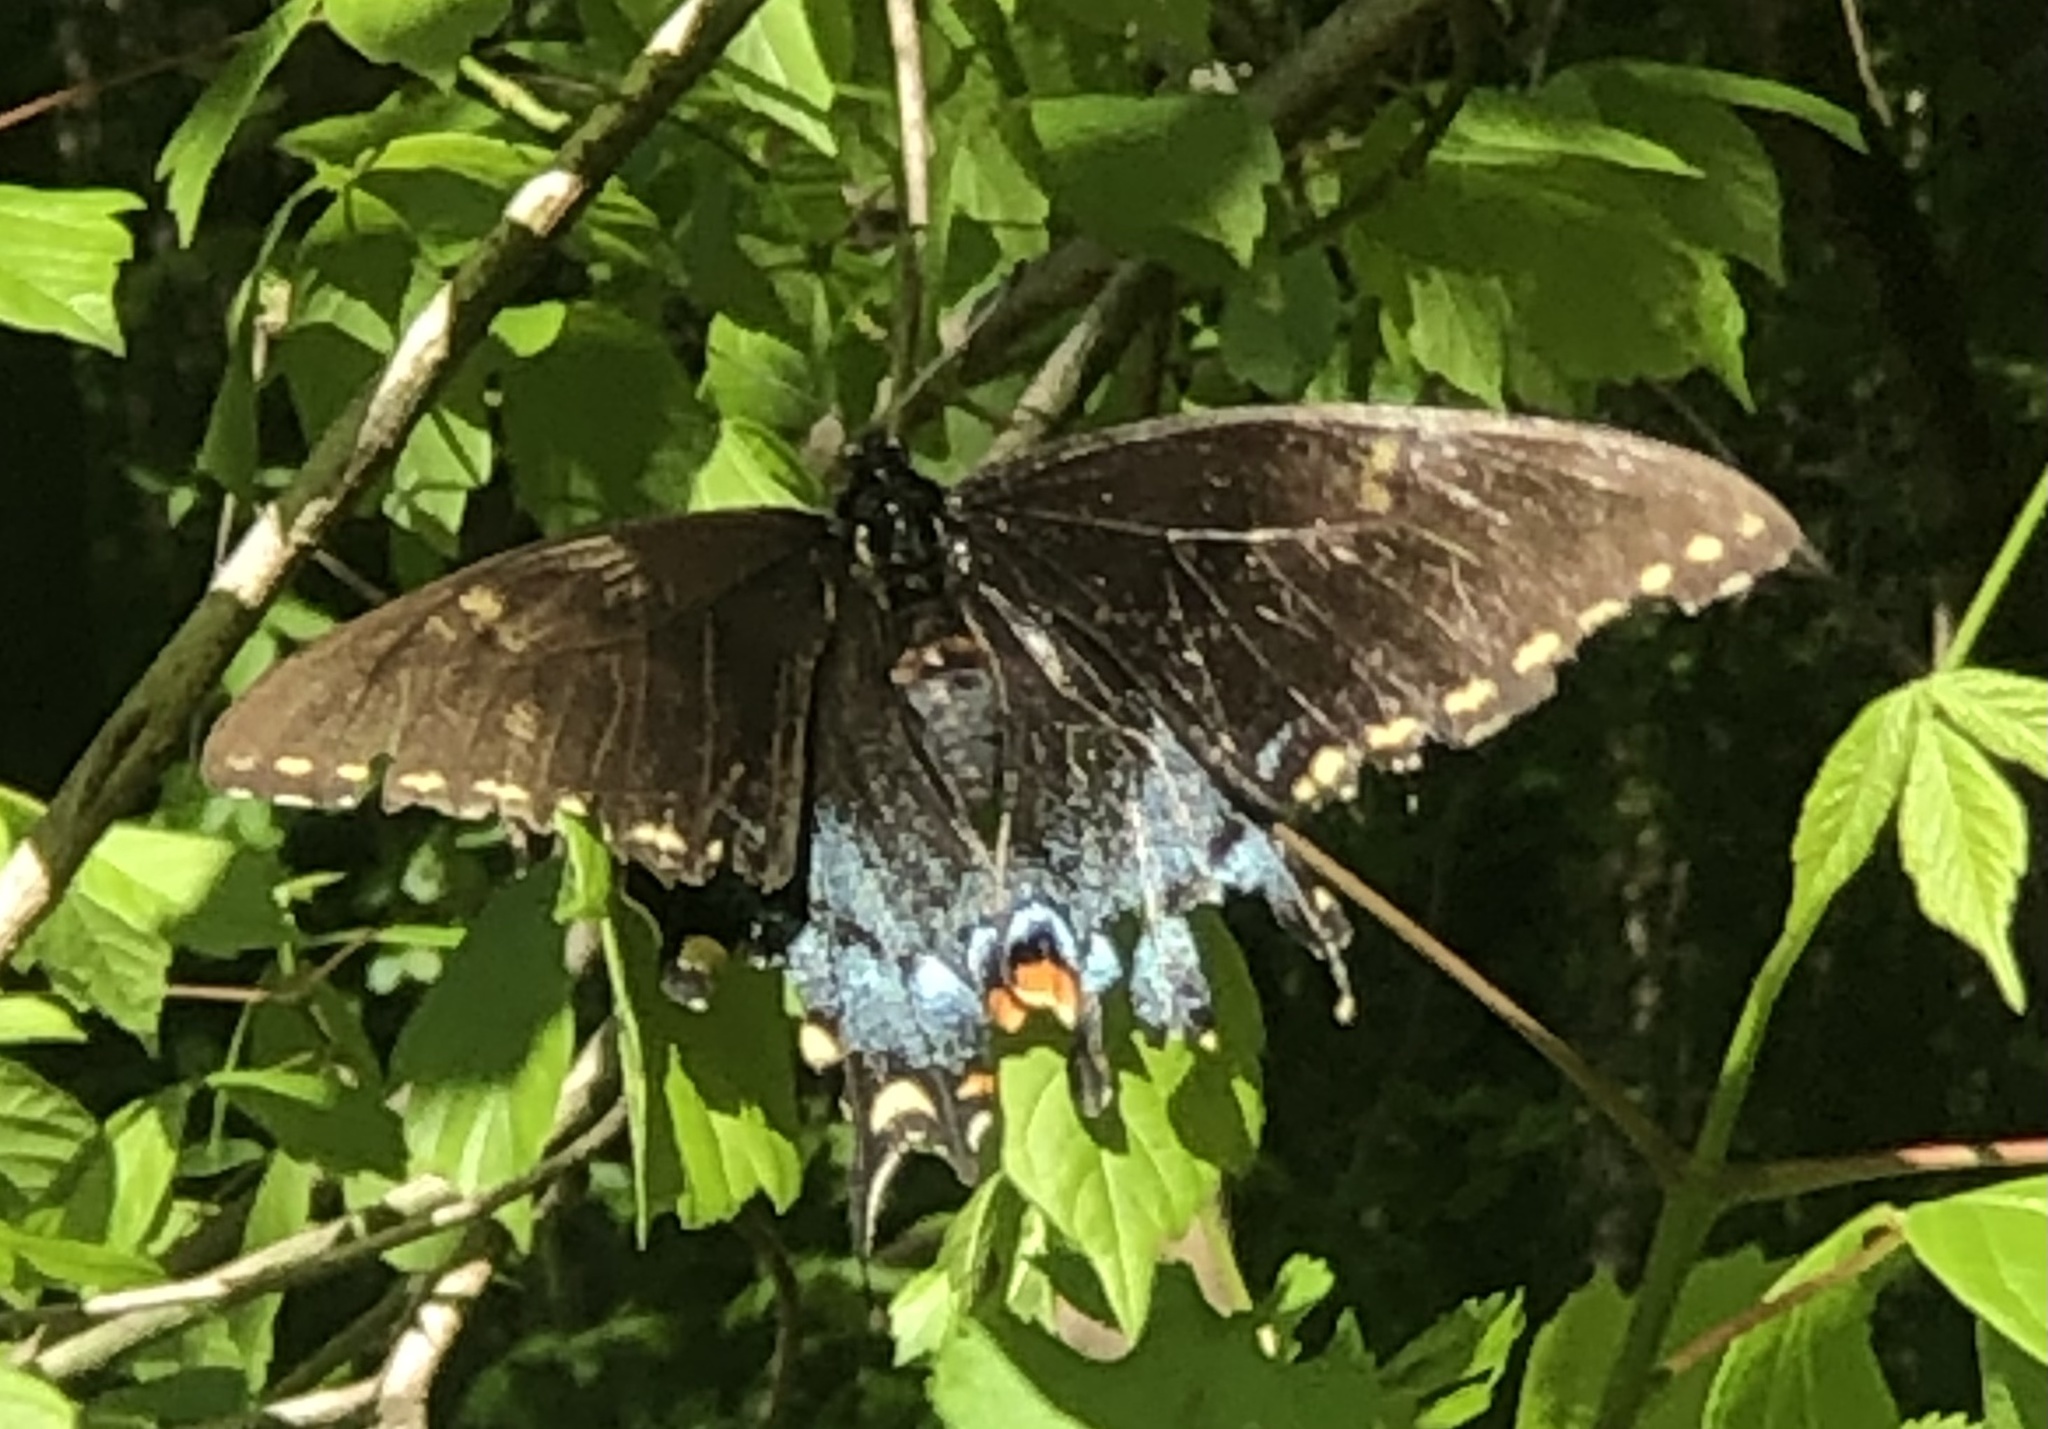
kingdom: Animalia
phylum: Arthropoda
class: Insecta
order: Lepidoptera
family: Papilionidae
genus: Papilio
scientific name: Papilio glaucus
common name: Tiger swallowtail
